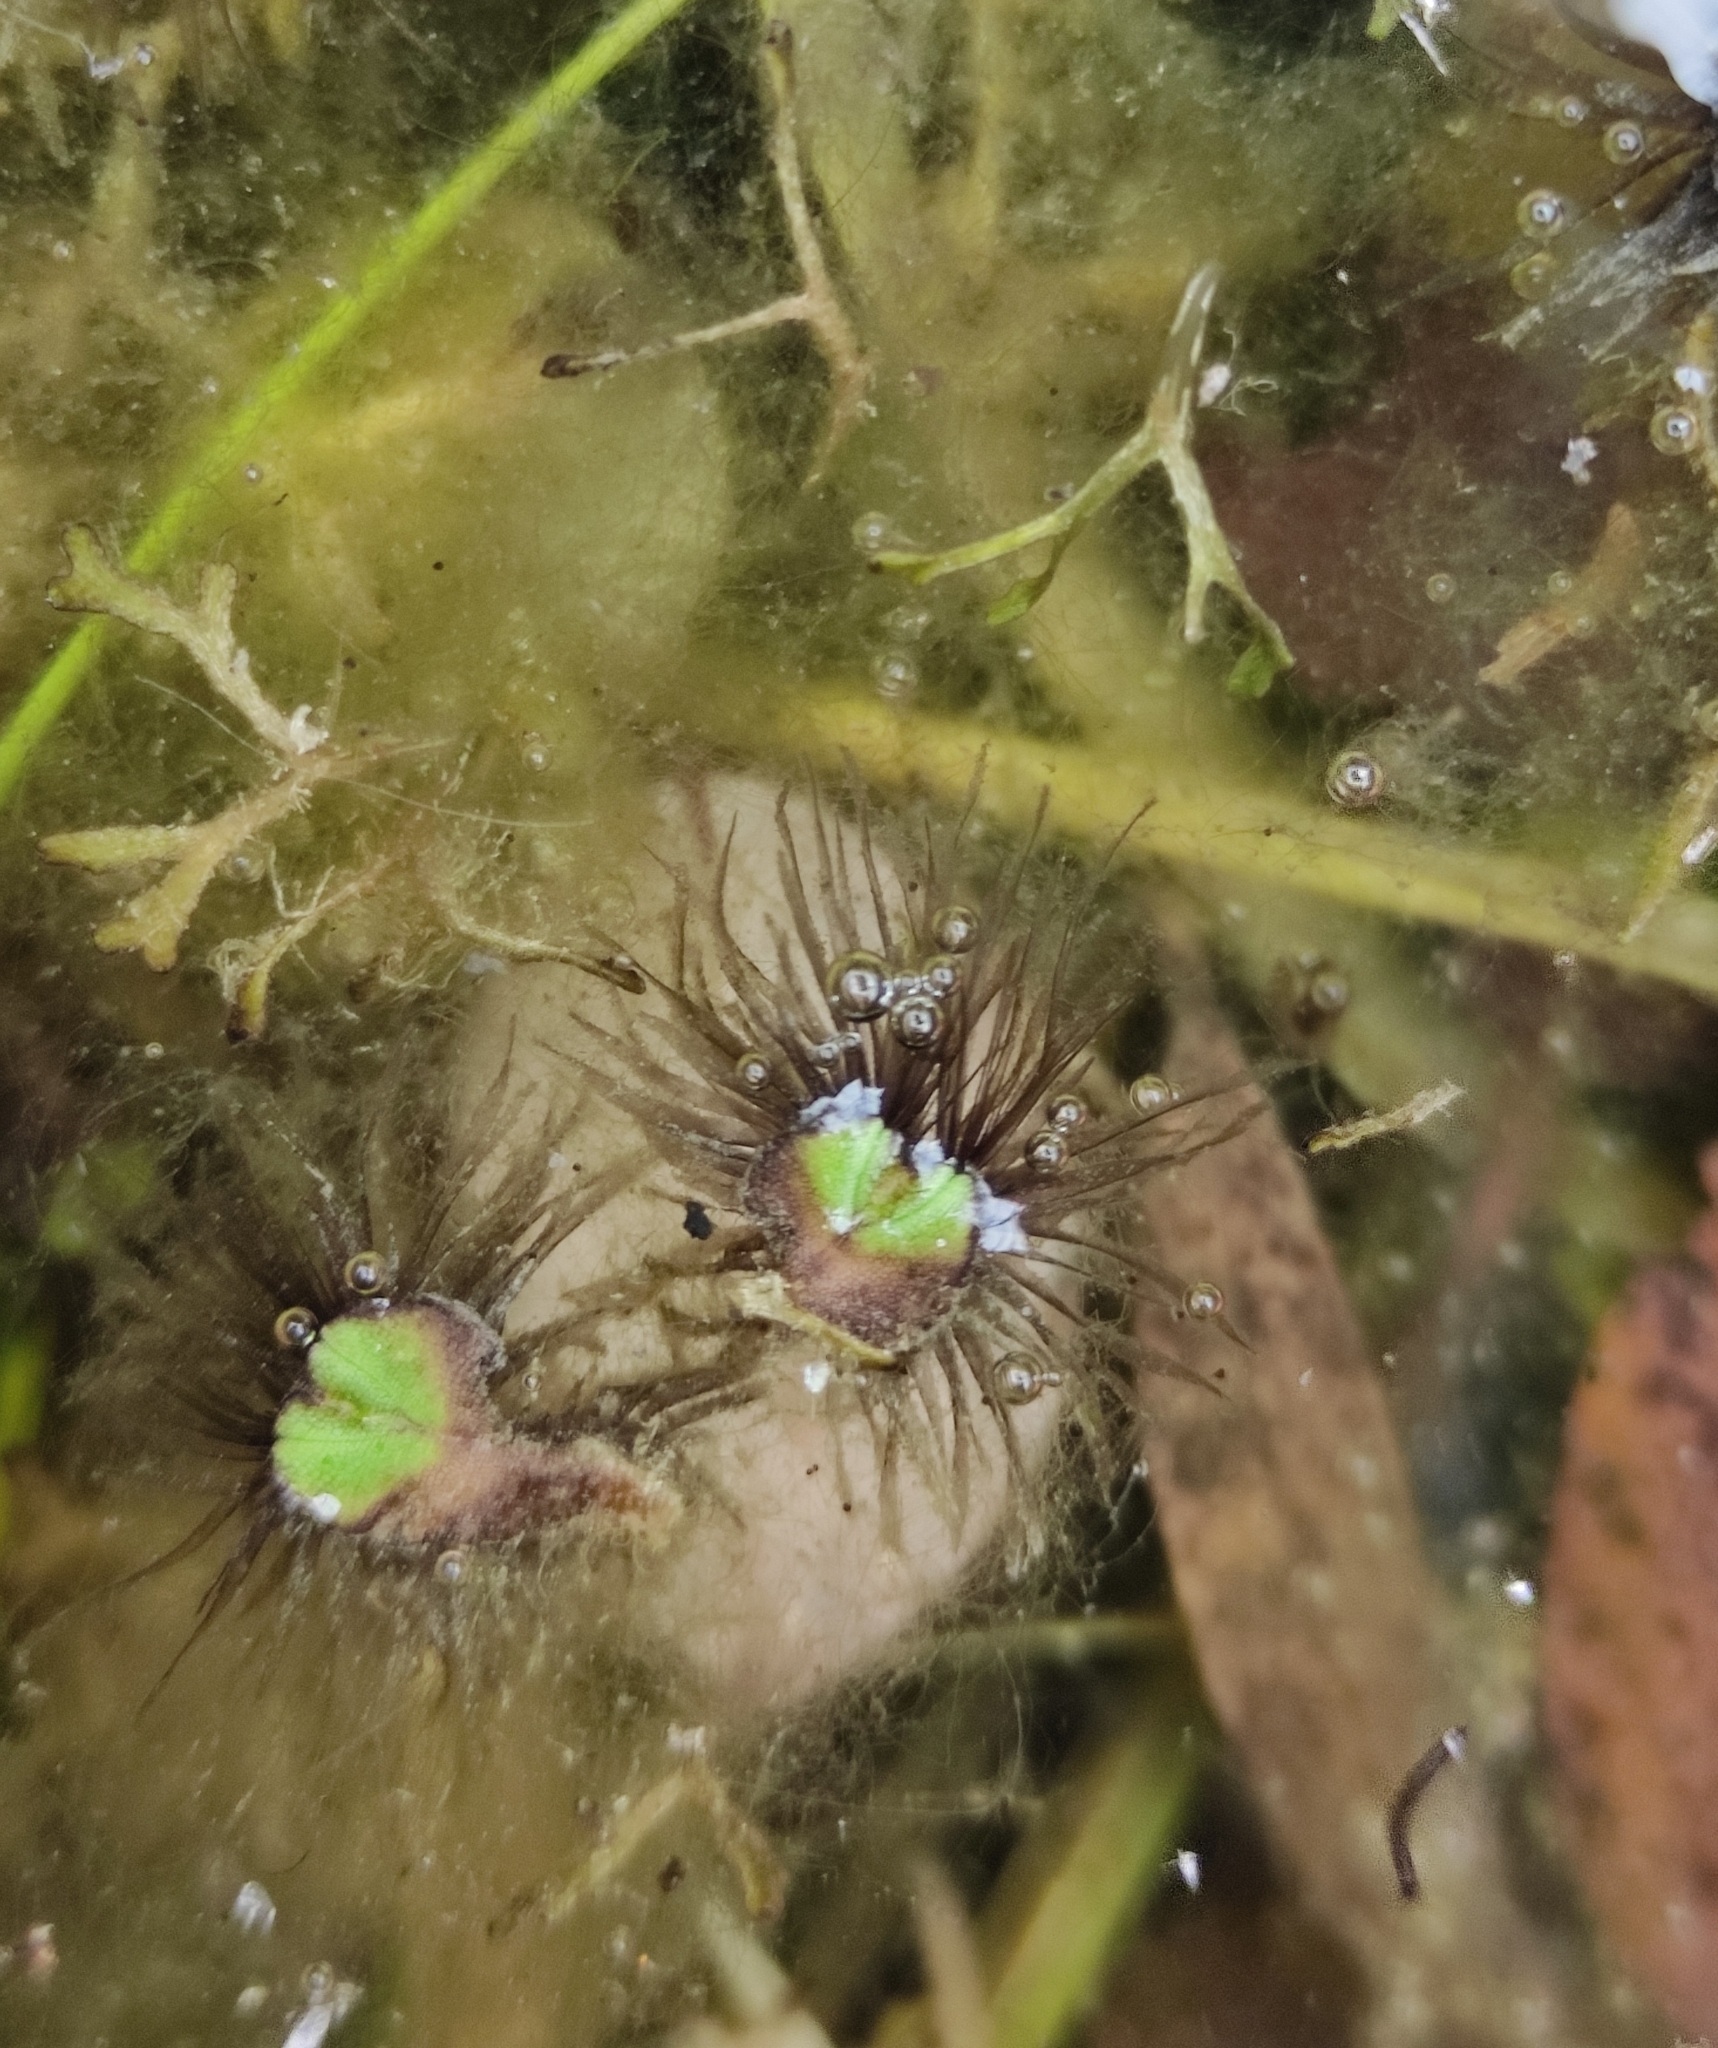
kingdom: Plantae
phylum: Marchantiophyta
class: Marchantiopsida
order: Marchantiales
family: Ricciaceae
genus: Ricciocarpos
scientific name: Ricciocarpos natans
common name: Purple-fringed liverwort
